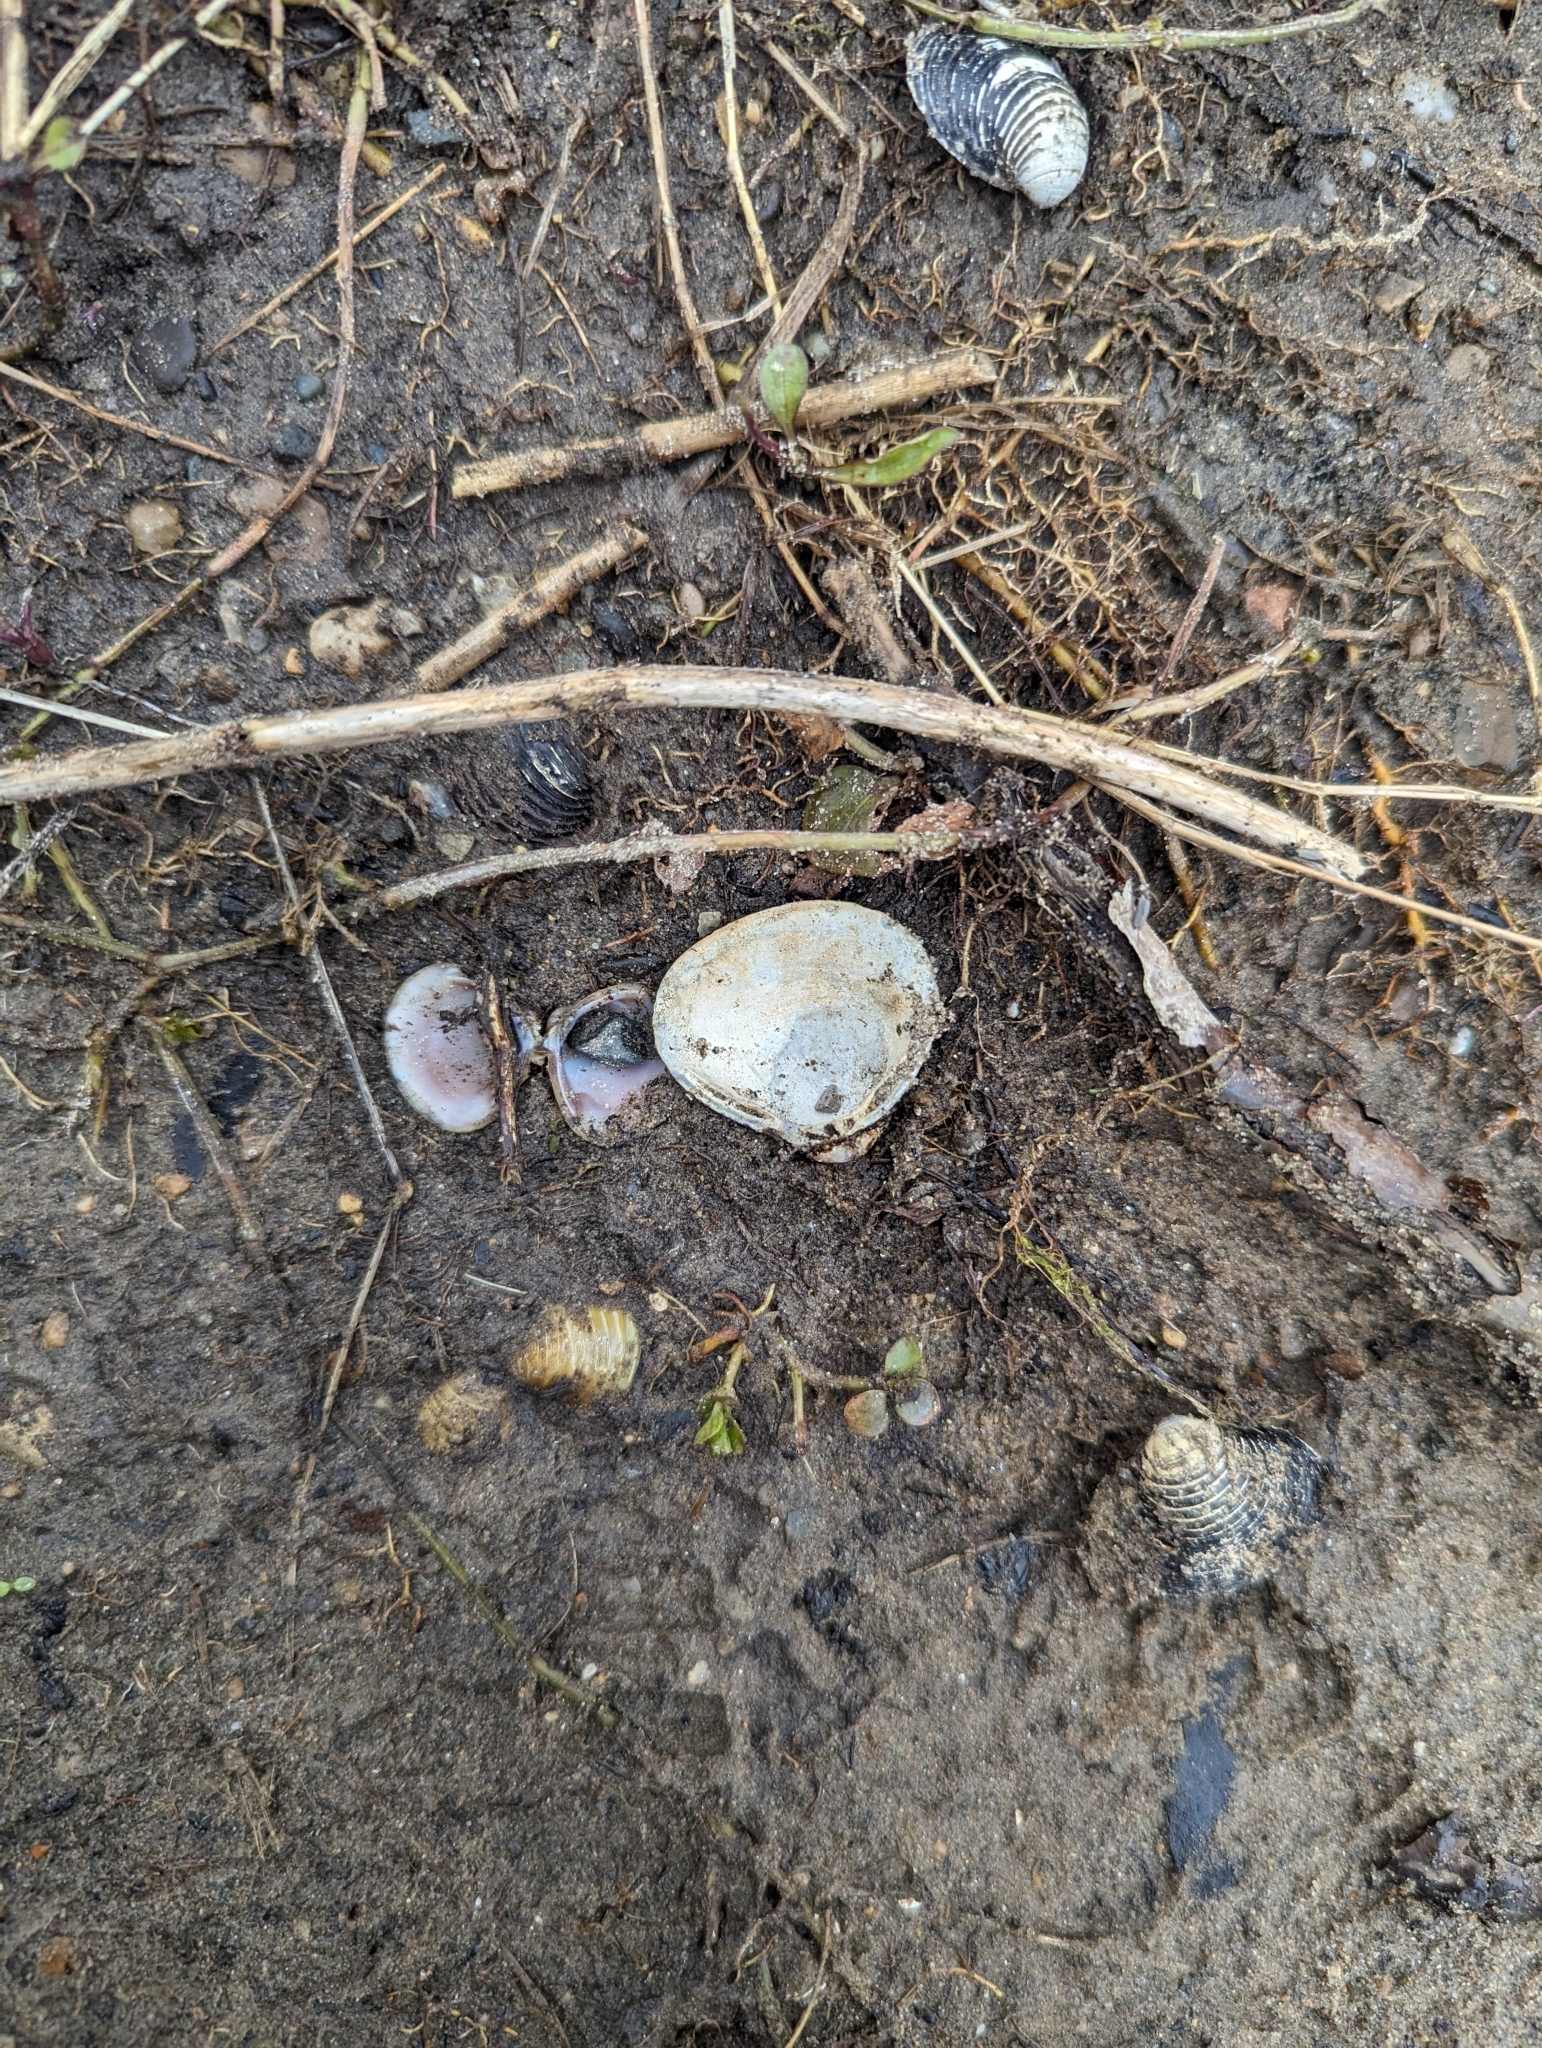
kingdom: Animalia
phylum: Mollusca
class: Bivalvia
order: Venerida
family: Cyrenidae
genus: Corbicula
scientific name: Corbicula fluminea
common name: Asian clam
